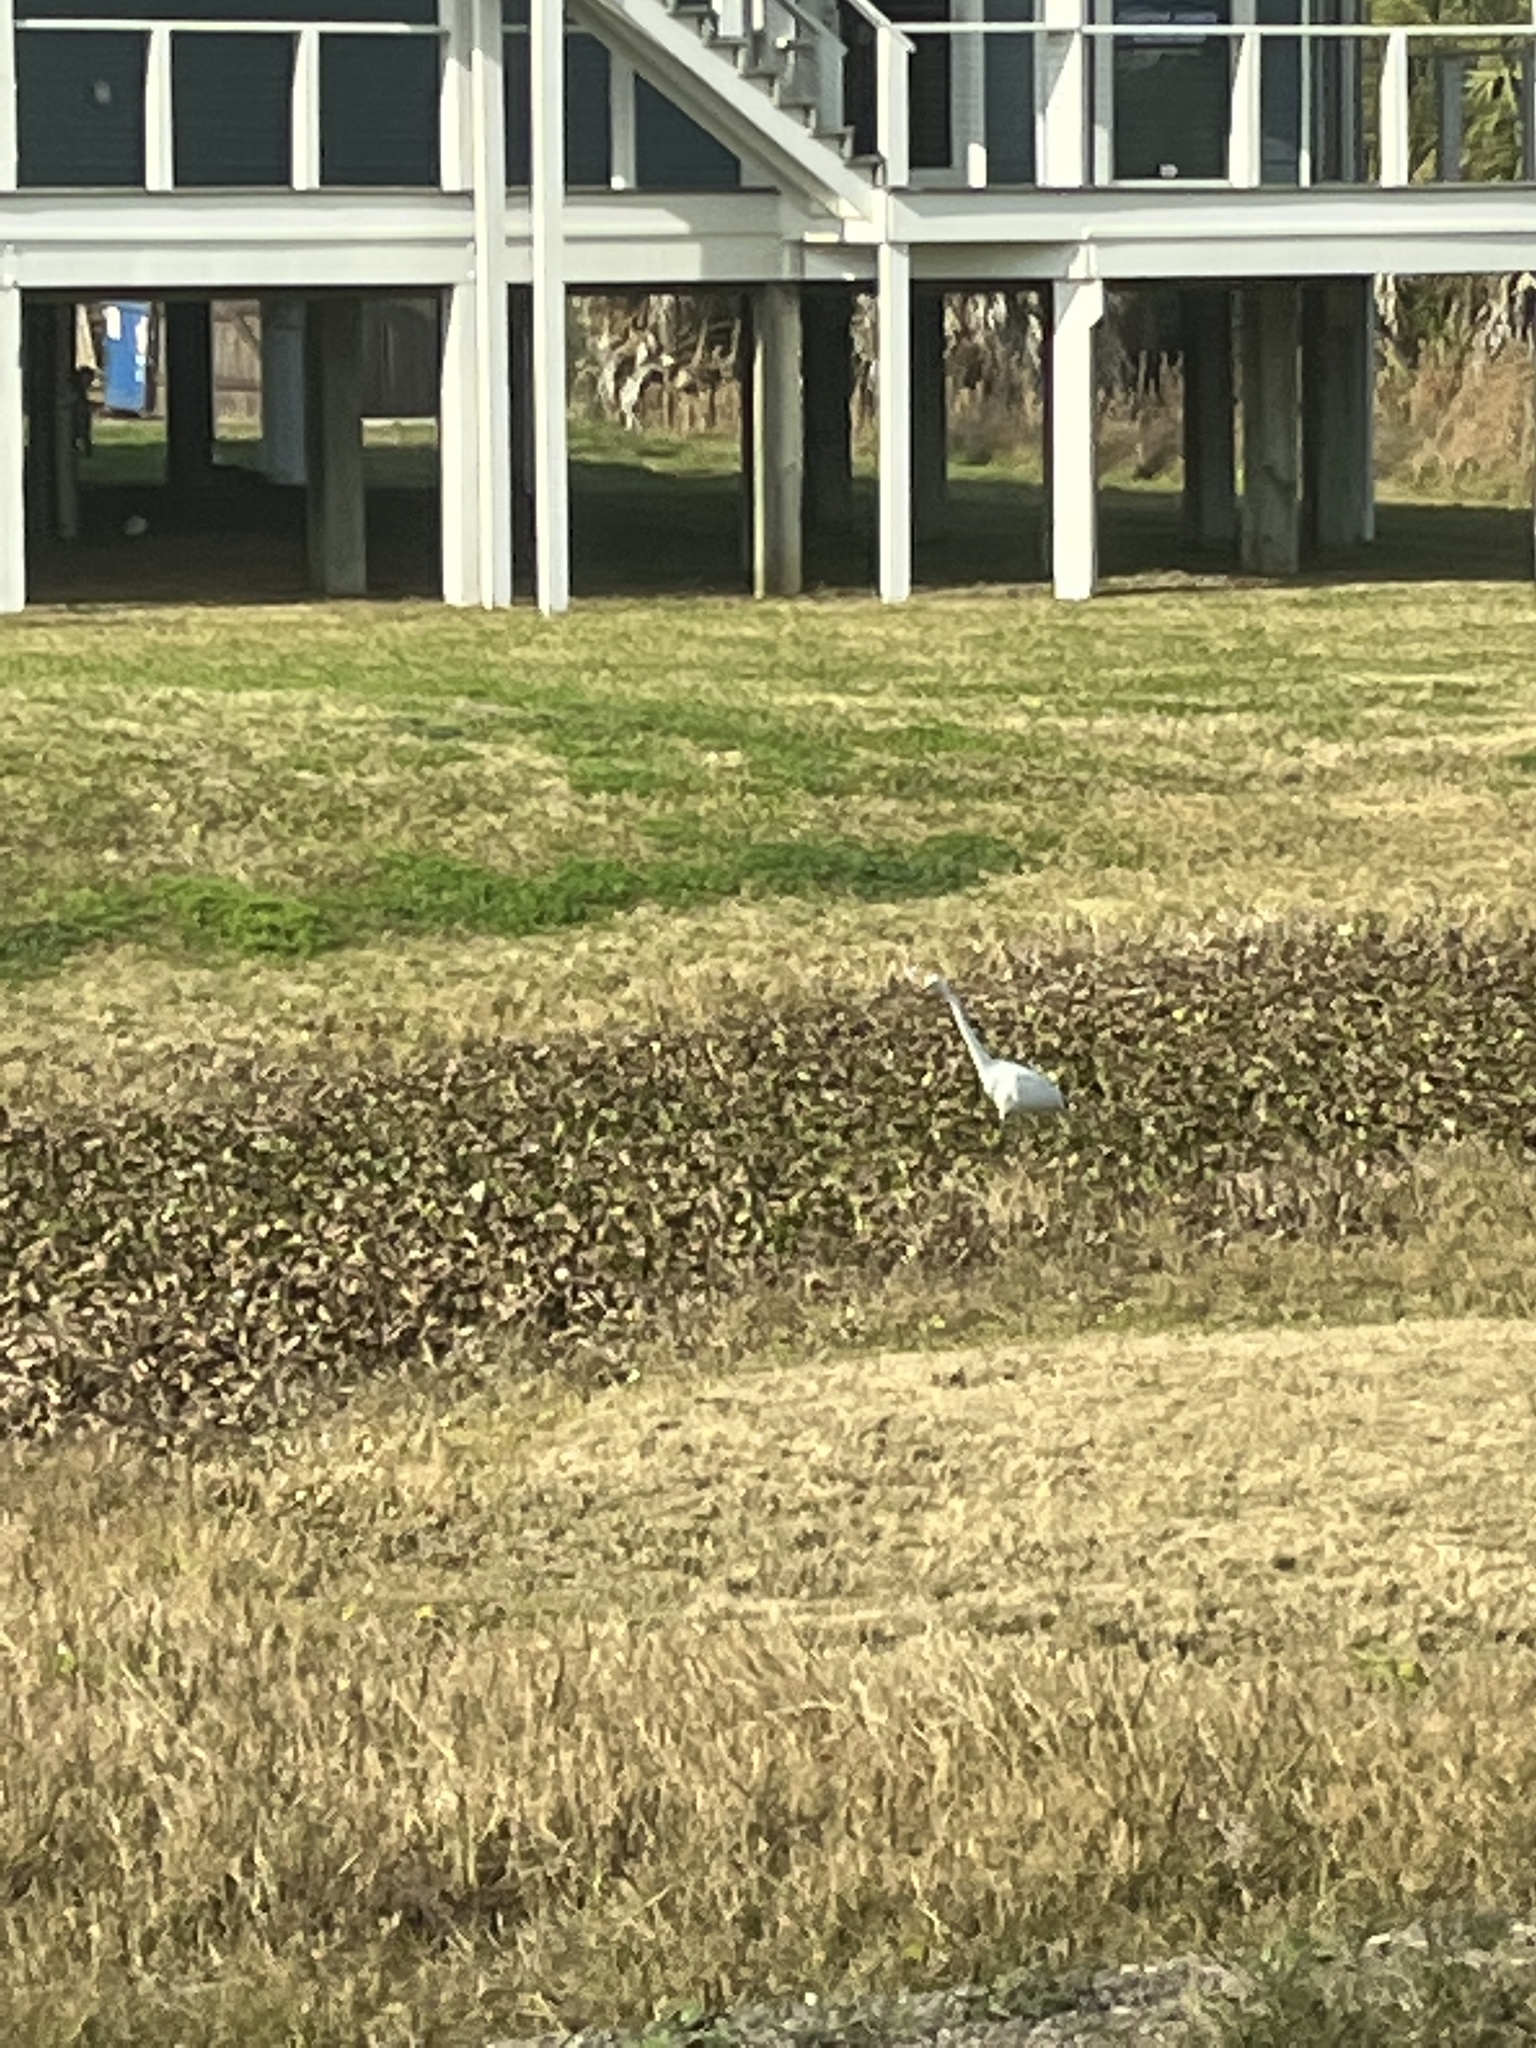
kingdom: Animalia
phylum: Chordata
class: Aves
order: Pelecaniformes
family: Ardeidae
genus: Ardea
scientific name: Ardea alba
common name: Great egret
